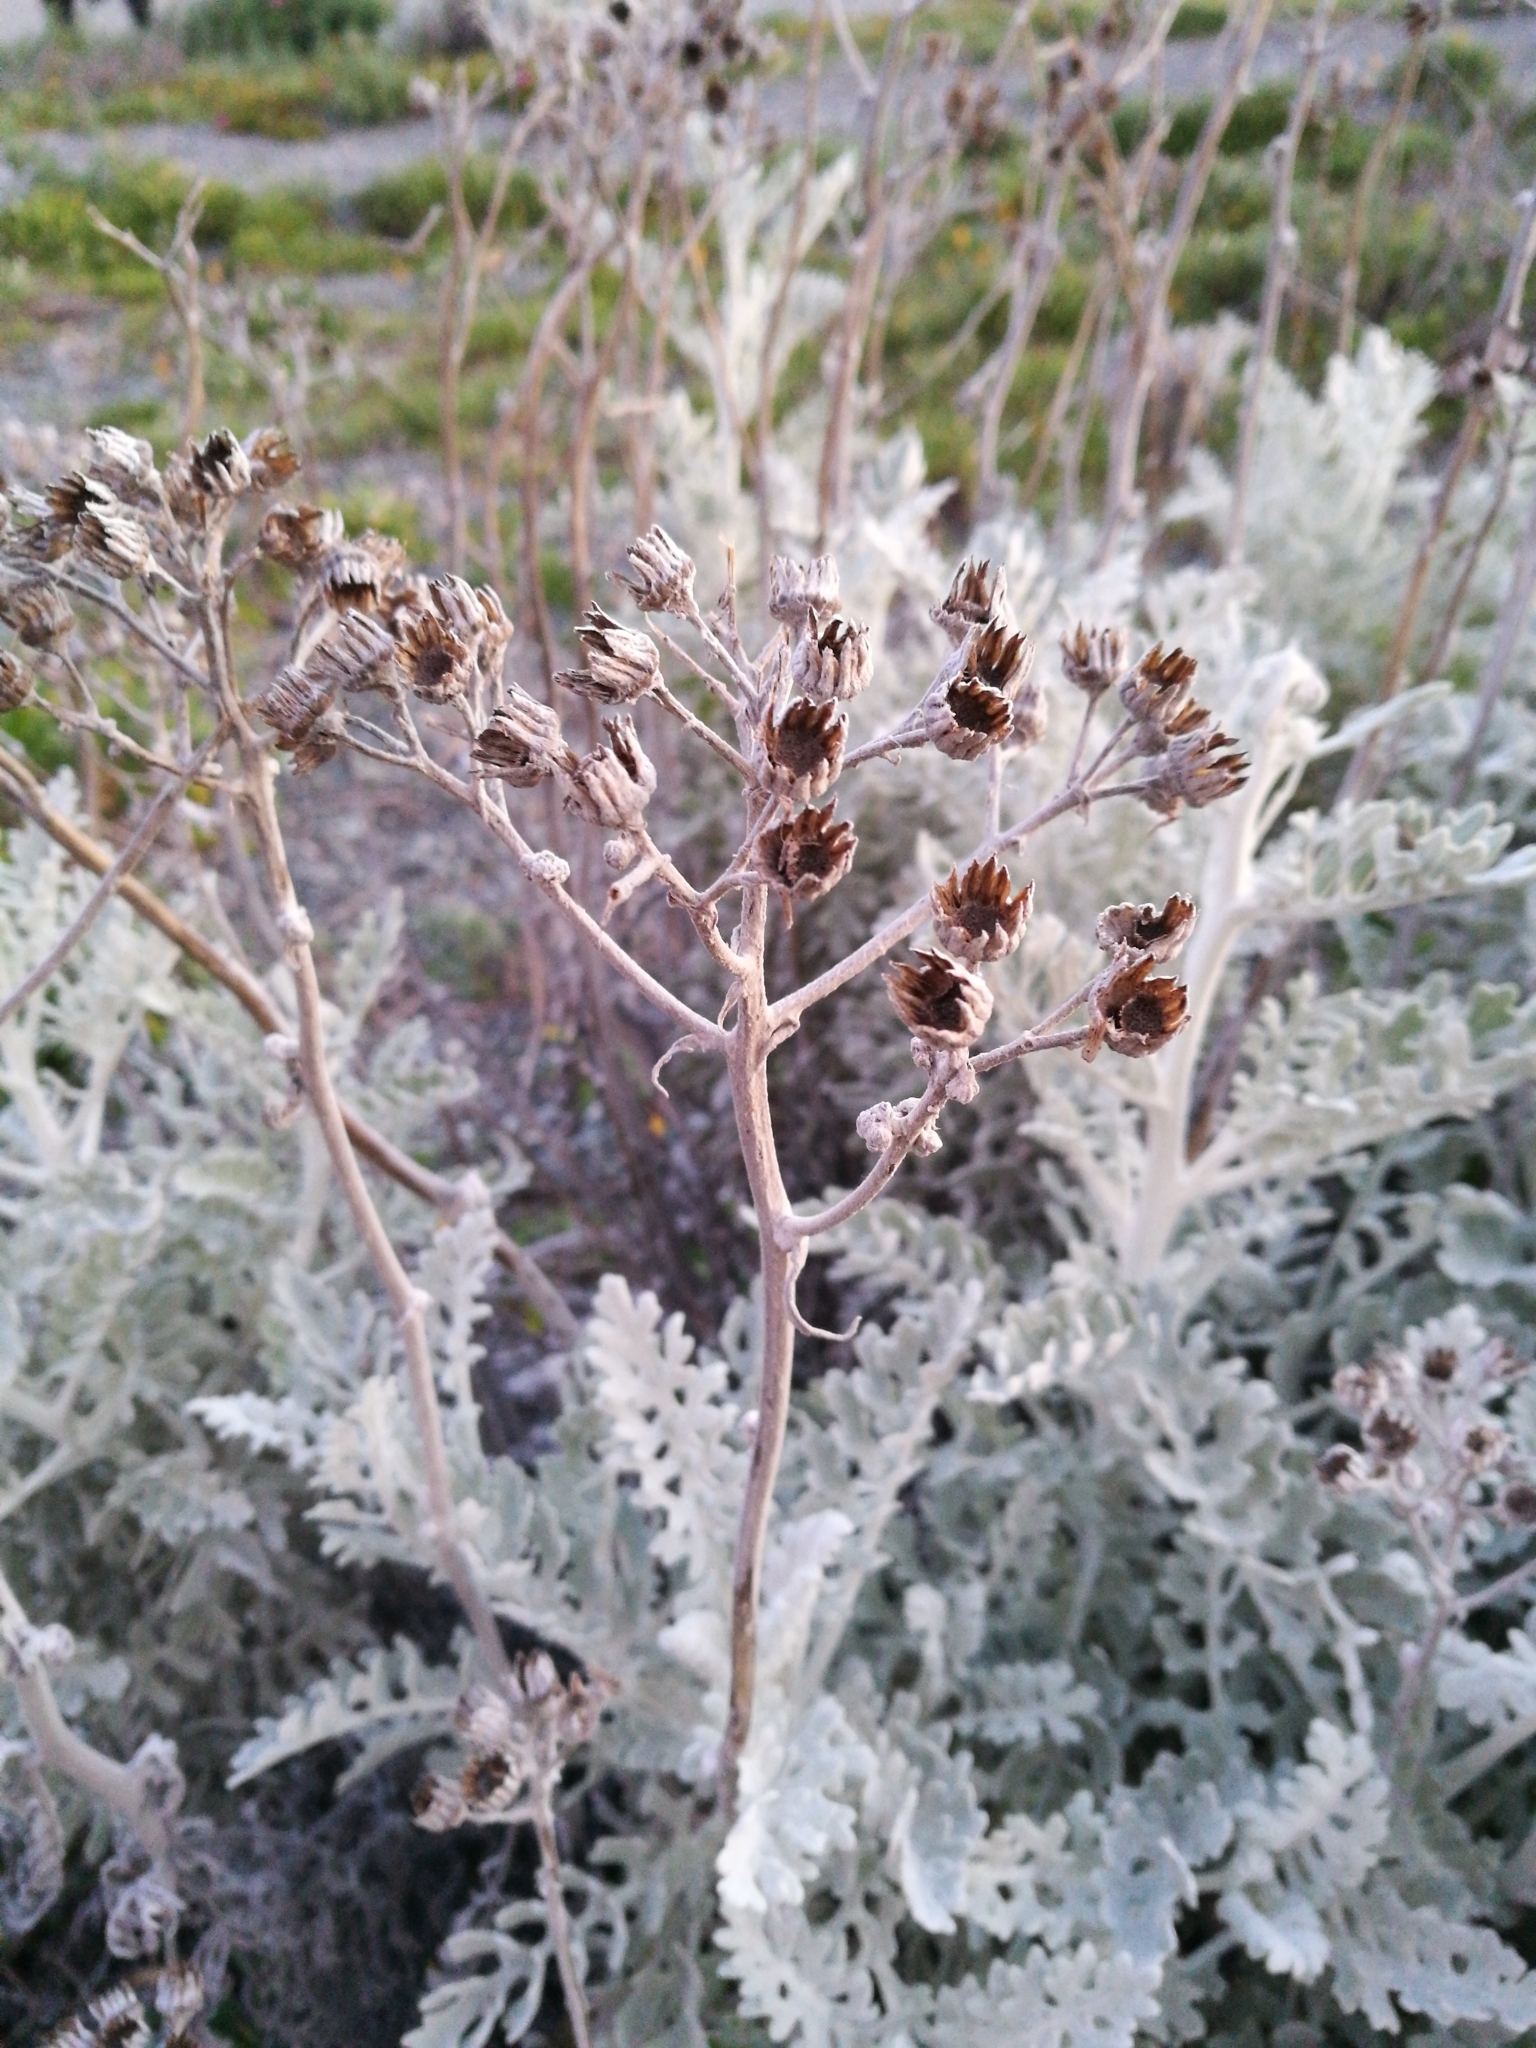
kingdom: Plantae
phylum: Tracheophyta
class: Magnoliopsida
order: Asterales
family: Asteraceae
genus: Jacobaea
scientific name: Jacobaea maritima
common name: Silver ragwort
